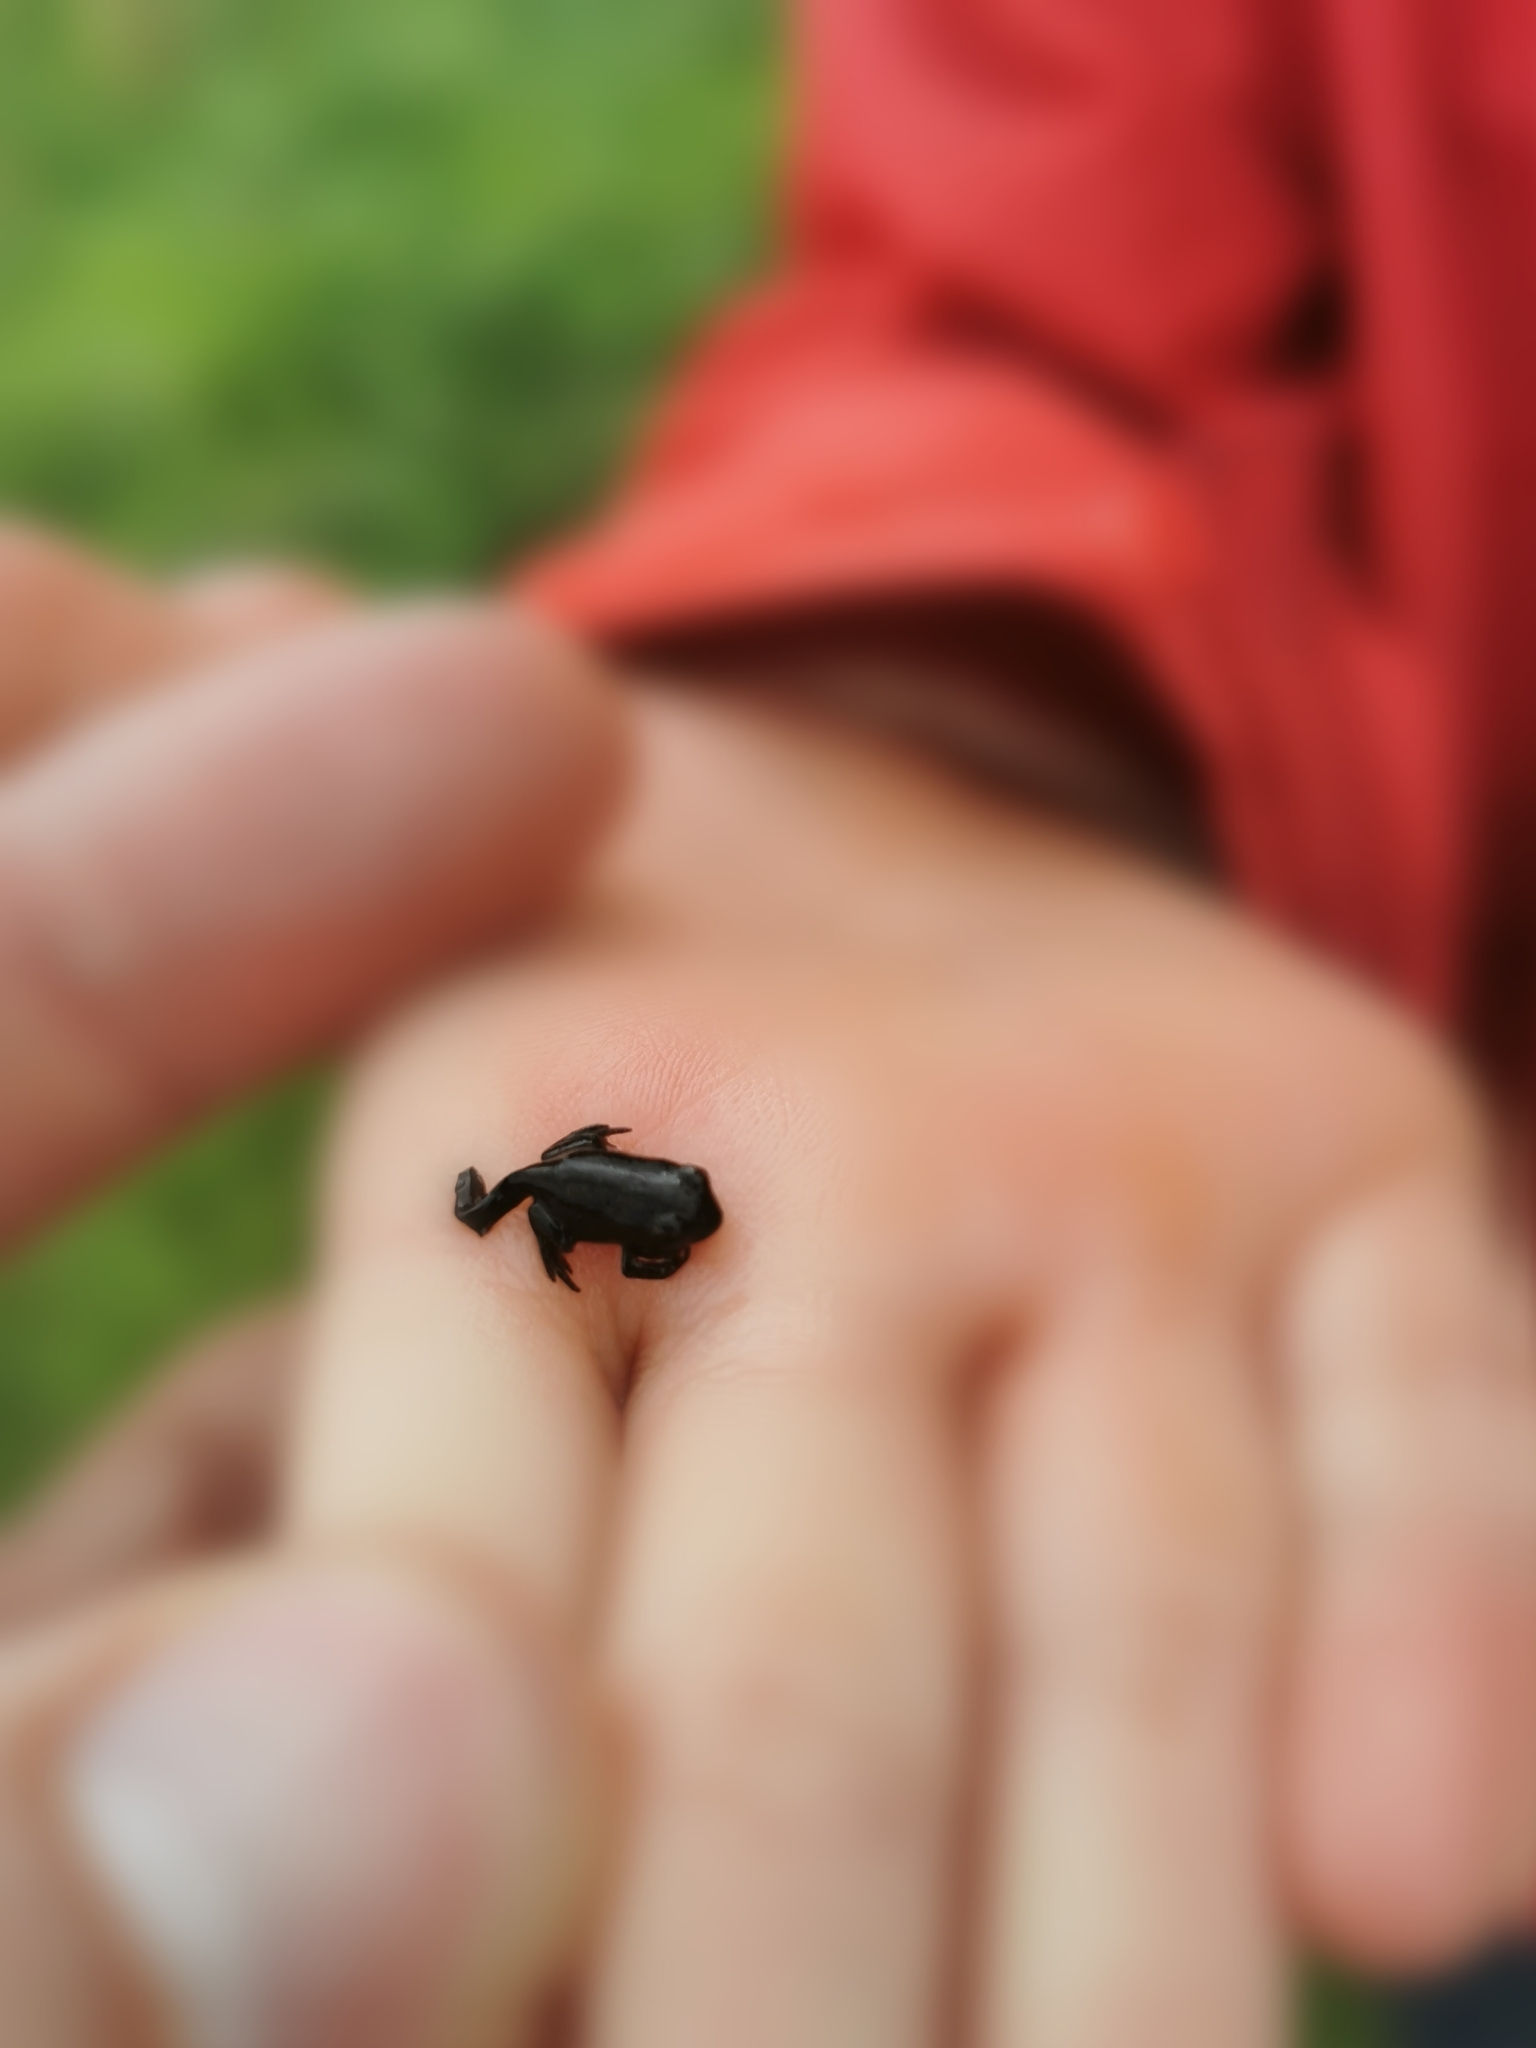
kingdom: Animalia
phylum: Chordata
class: Amphibia
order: Anura
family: Bufonidae
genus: Bufo
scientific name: Bufo bufo
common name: Common toad
